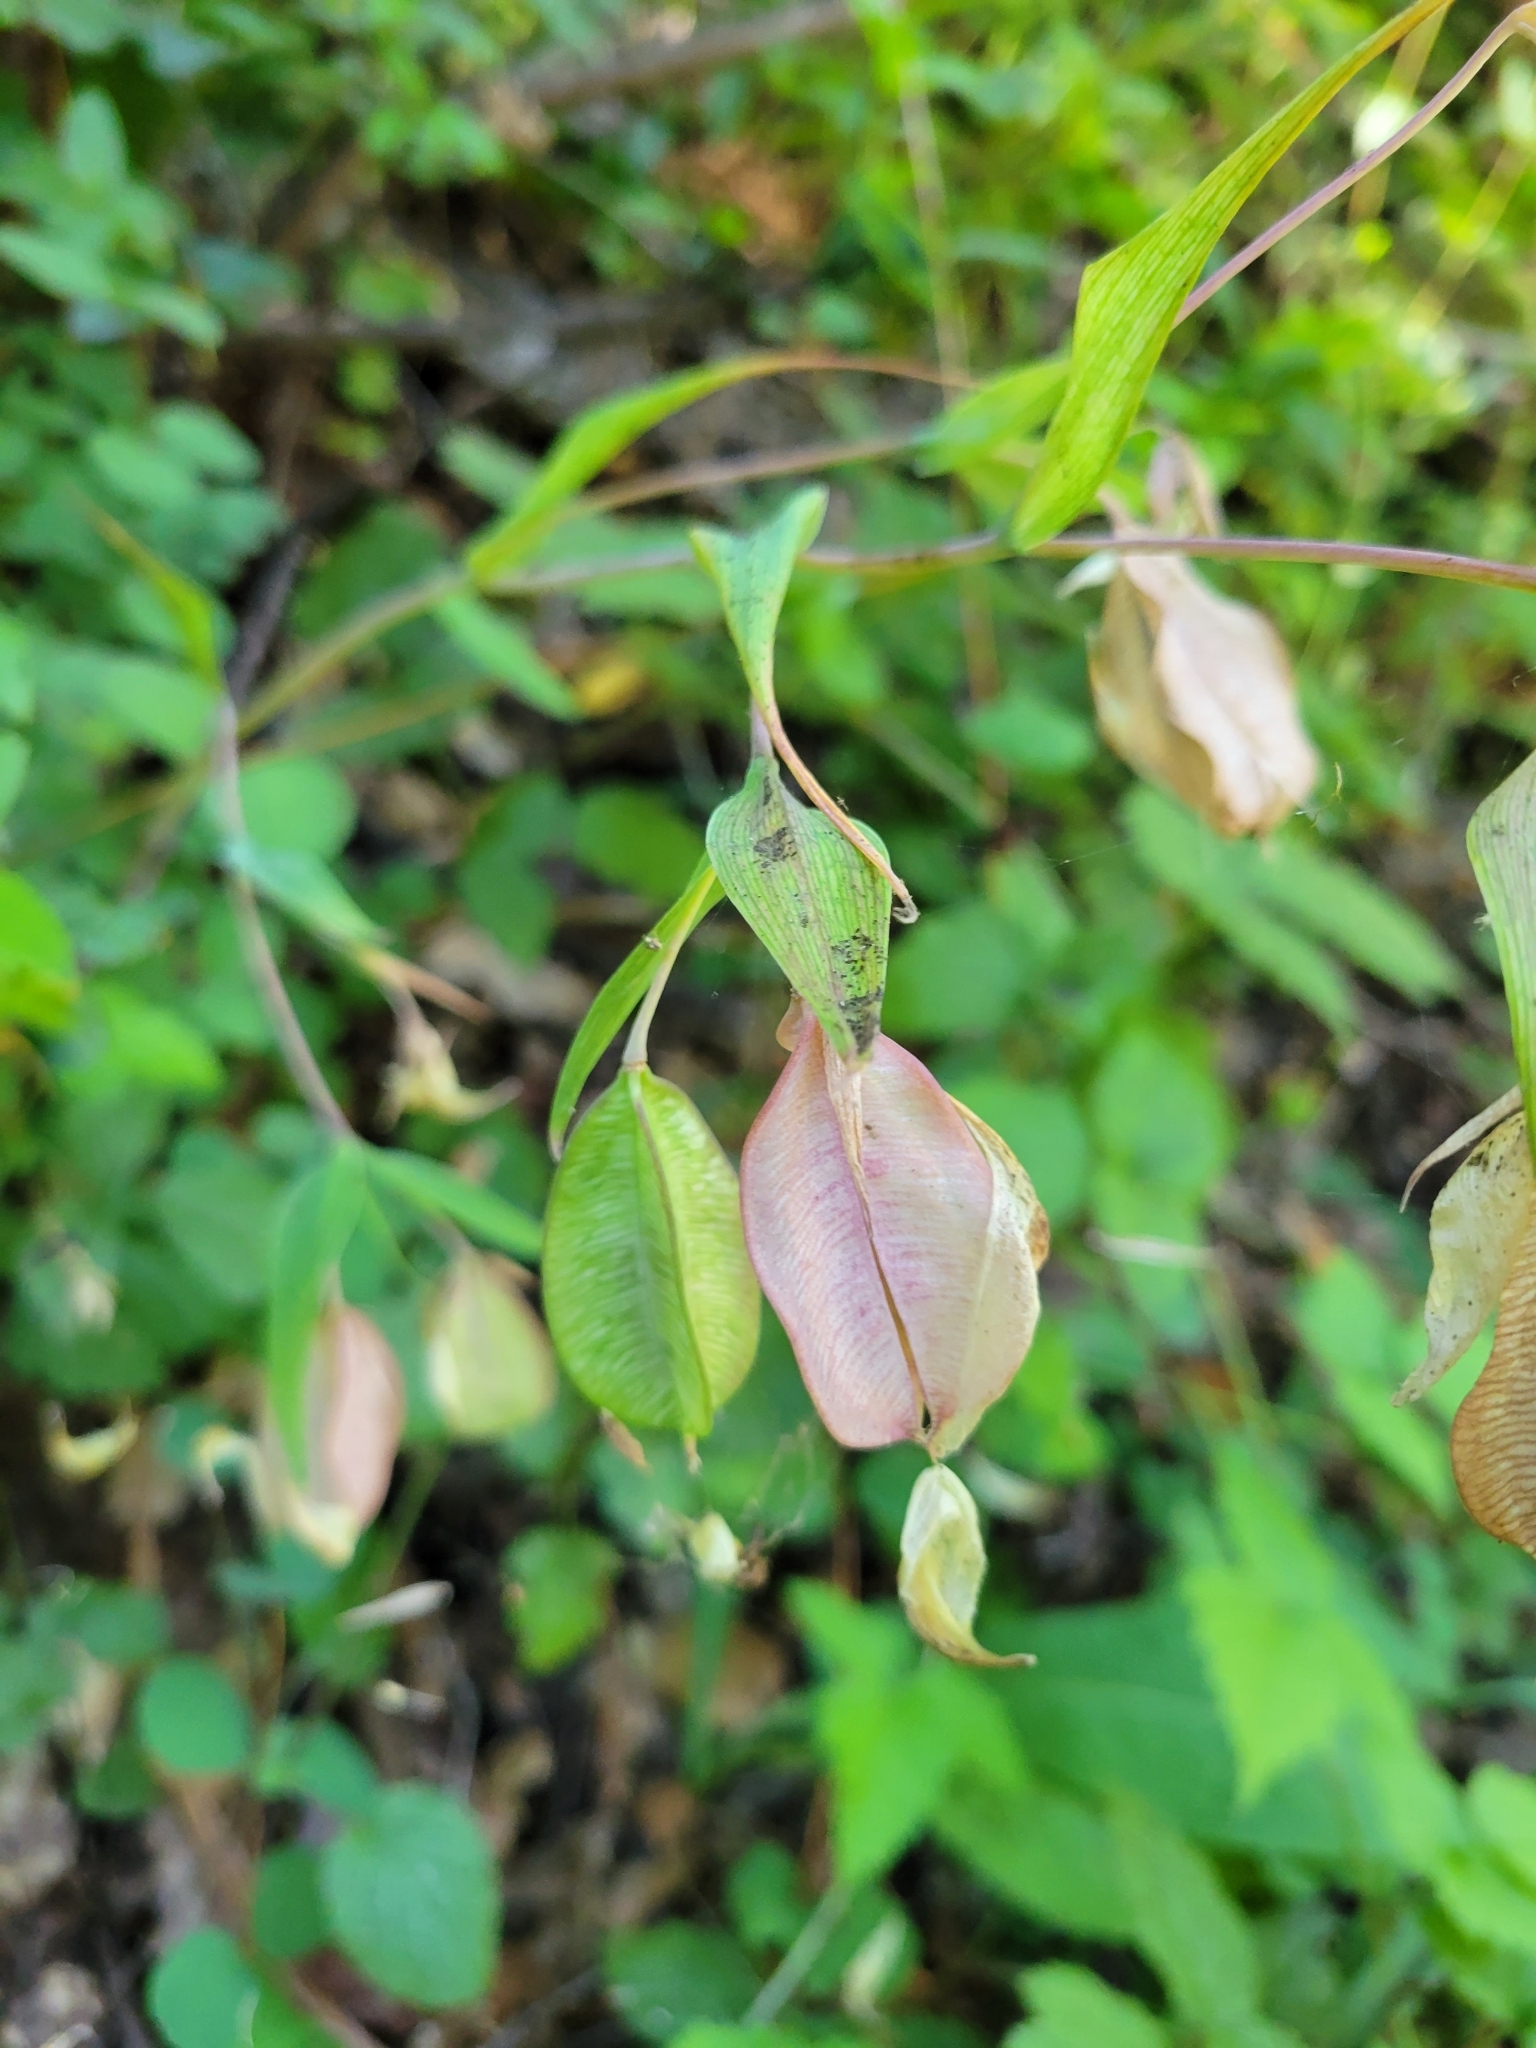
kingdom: Plantae
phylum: Tracheophyta
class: Liliopsida
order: Liliales
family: Liliaceae
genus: Calochortus
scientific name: Calochortus albus
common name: Fairy-lantern
